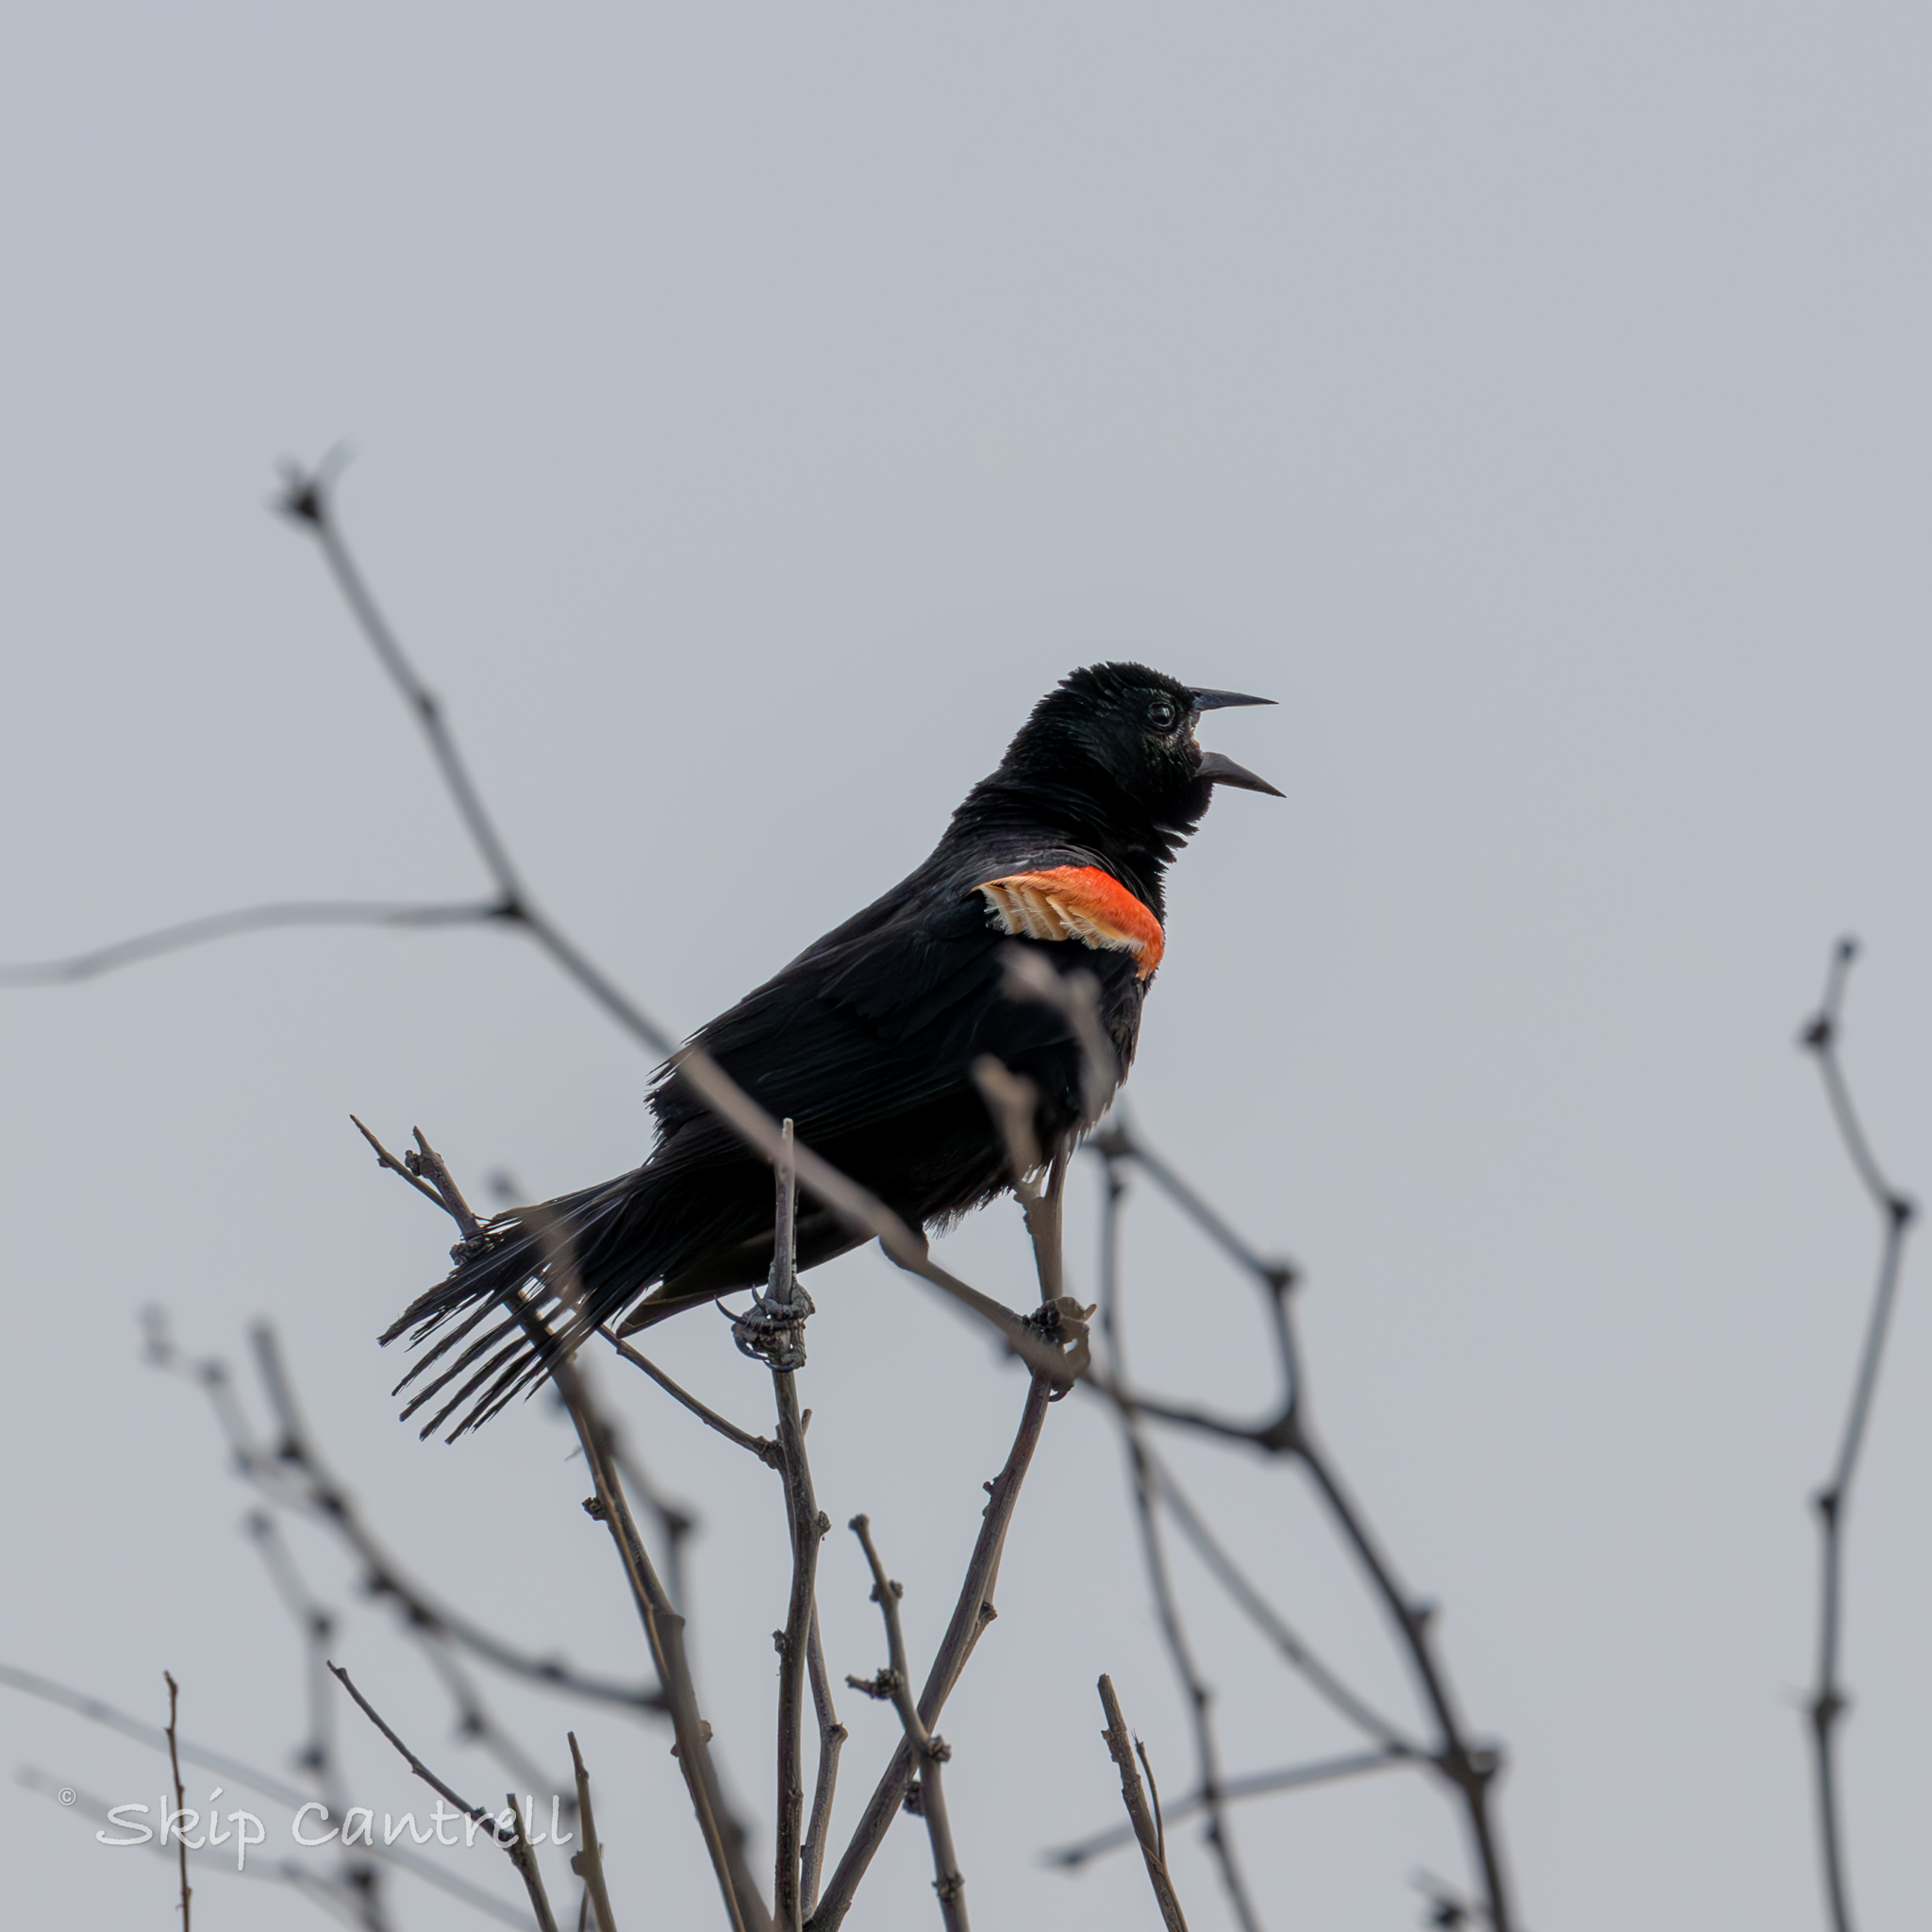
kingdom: Animalia
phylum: Chordata
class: Aves
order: Passeriformes
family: Icteridae
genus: Agelaius
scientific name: Agelaius phoeniceus
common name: Red-winged blackbird
